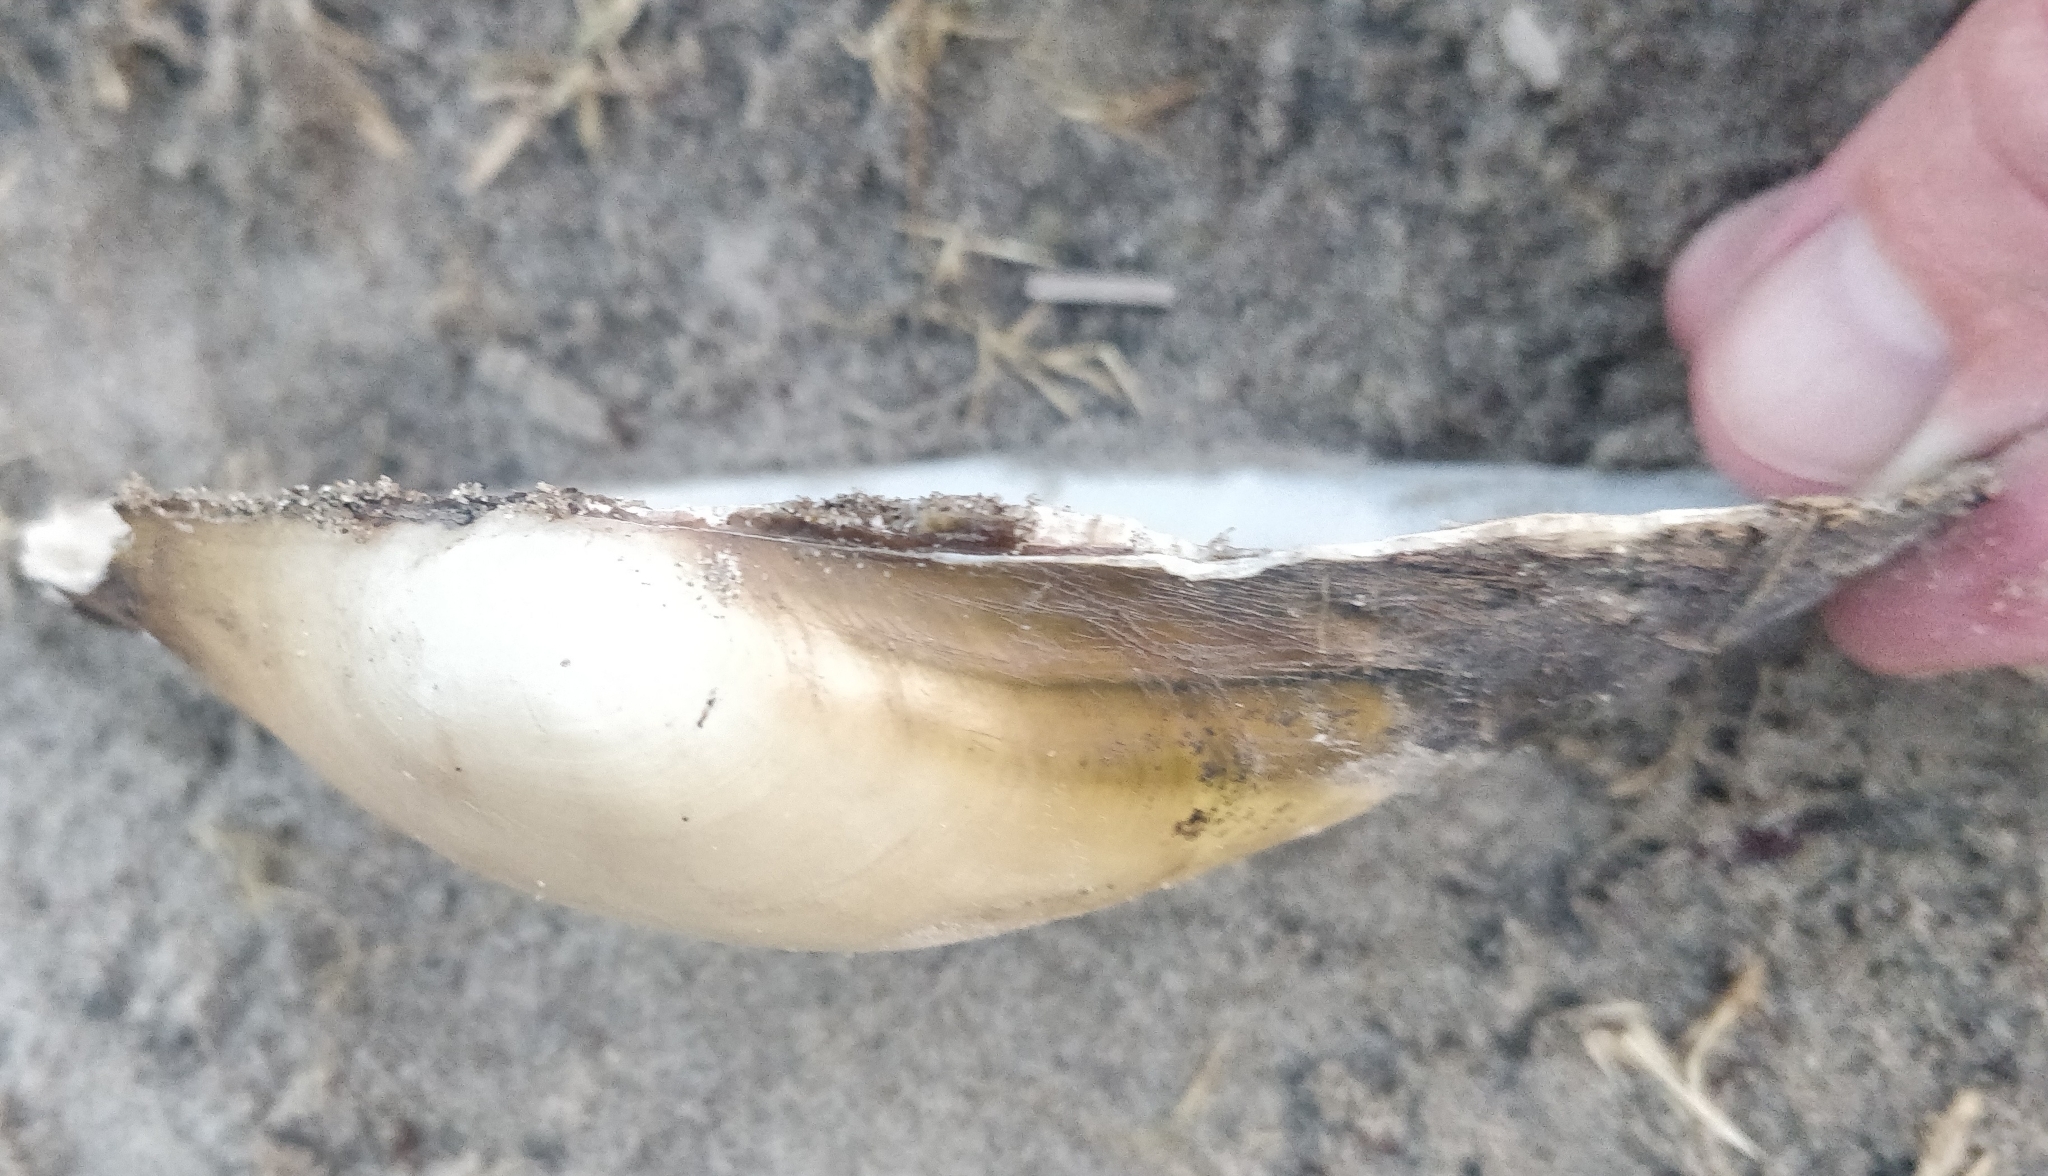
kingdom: Animalia
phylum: Mollusca
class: Bivalvia
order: Unionida
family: Unionidae
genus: Pyganodon
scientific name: Pyganodon grandis
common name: Giant floater
